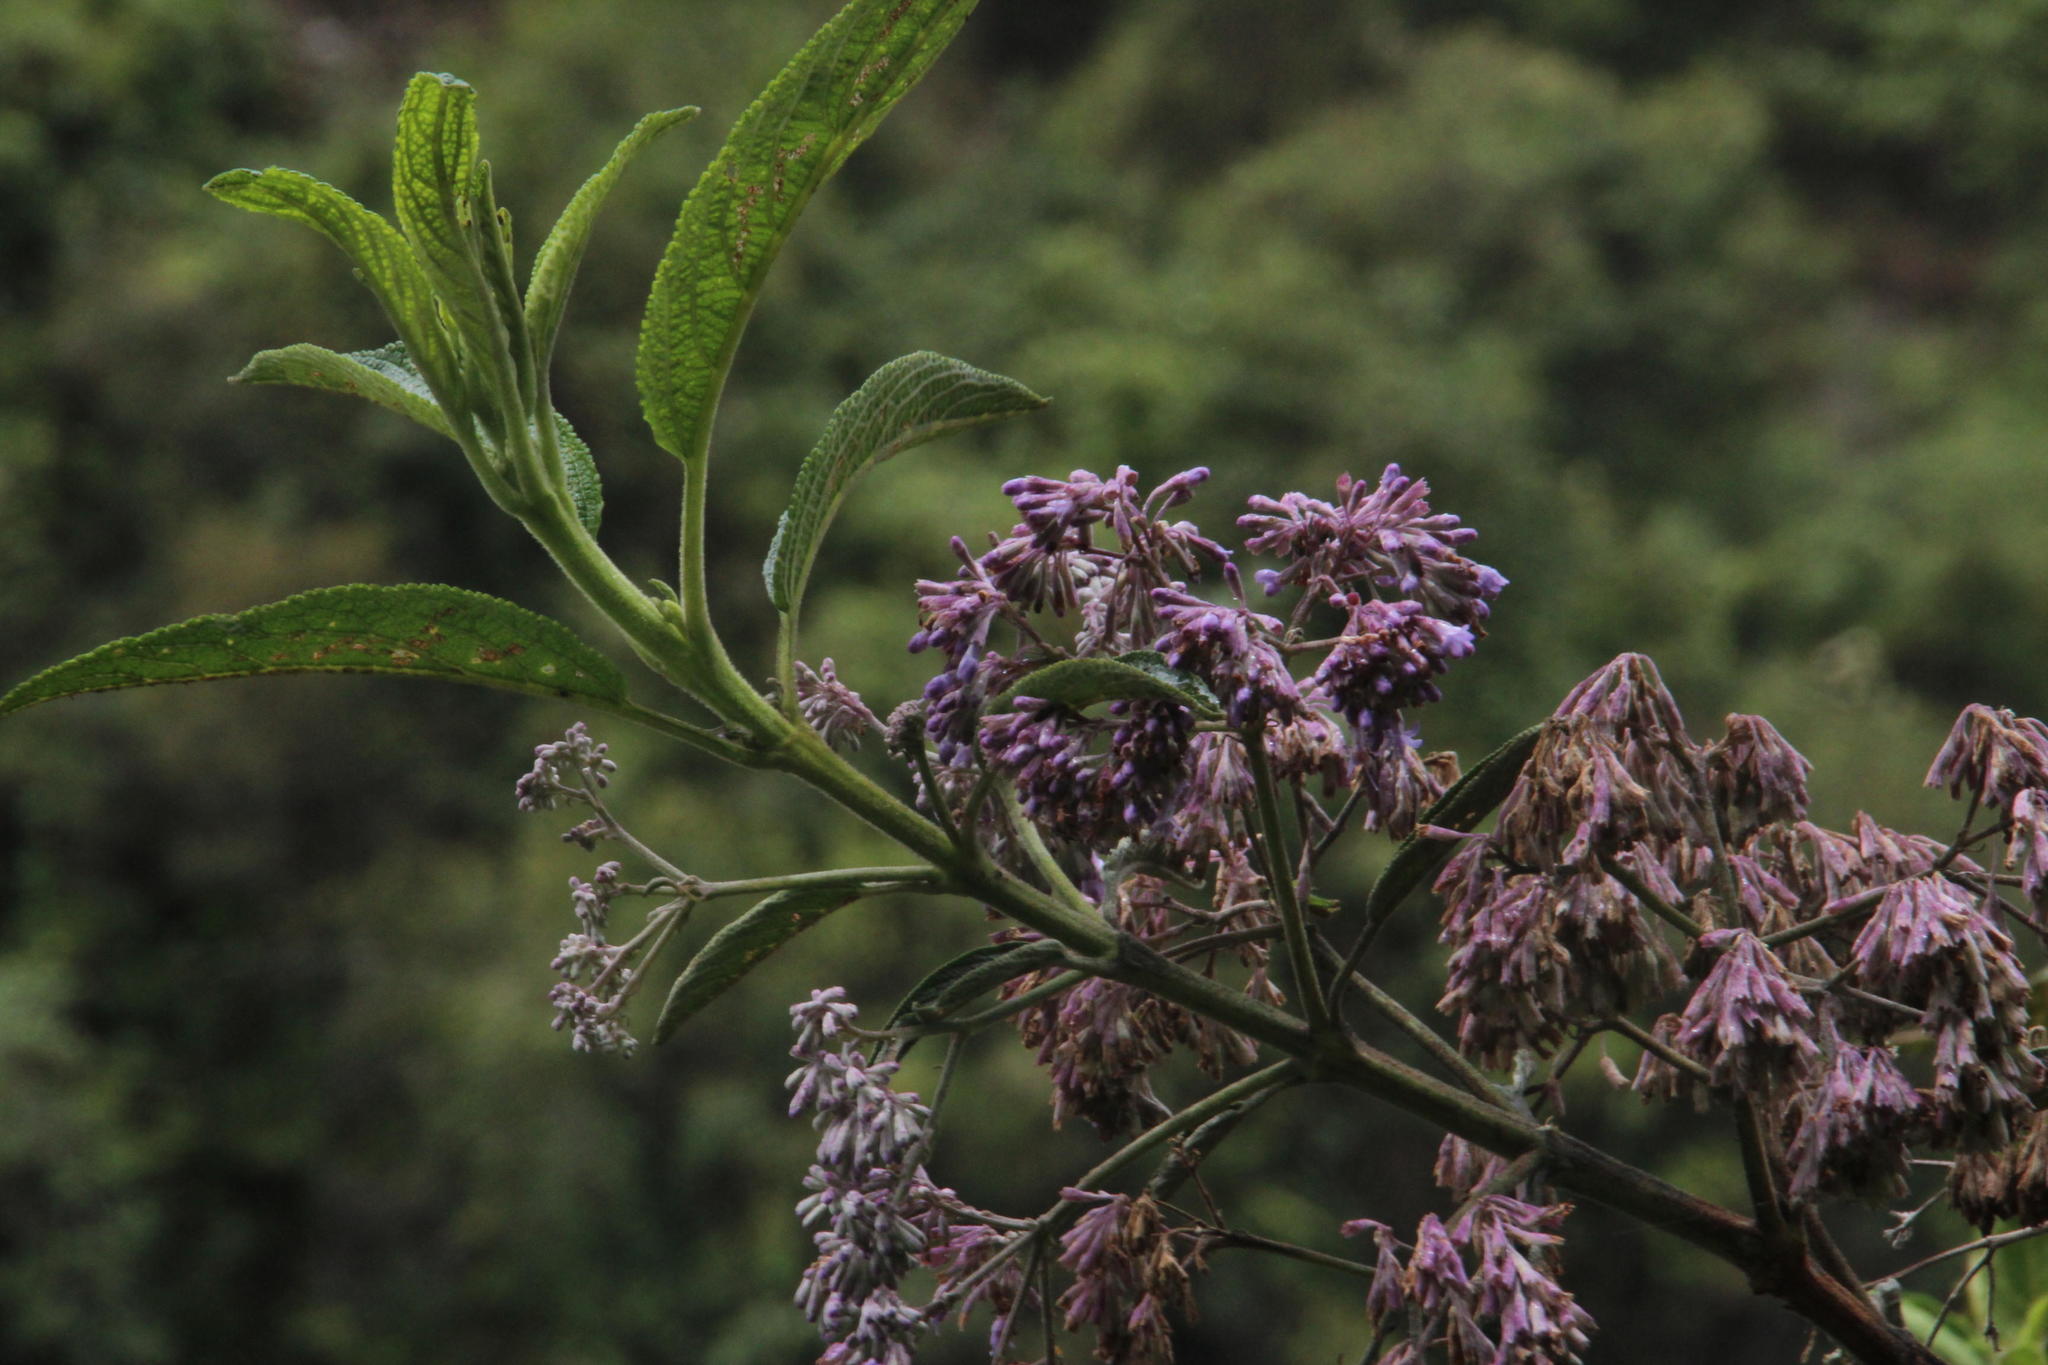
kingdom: Plantae
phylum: Tracheophyta
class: Magnoliopsida
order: Lamiales
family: Lamiaceae
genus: Condea
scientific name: Condea tafallae
